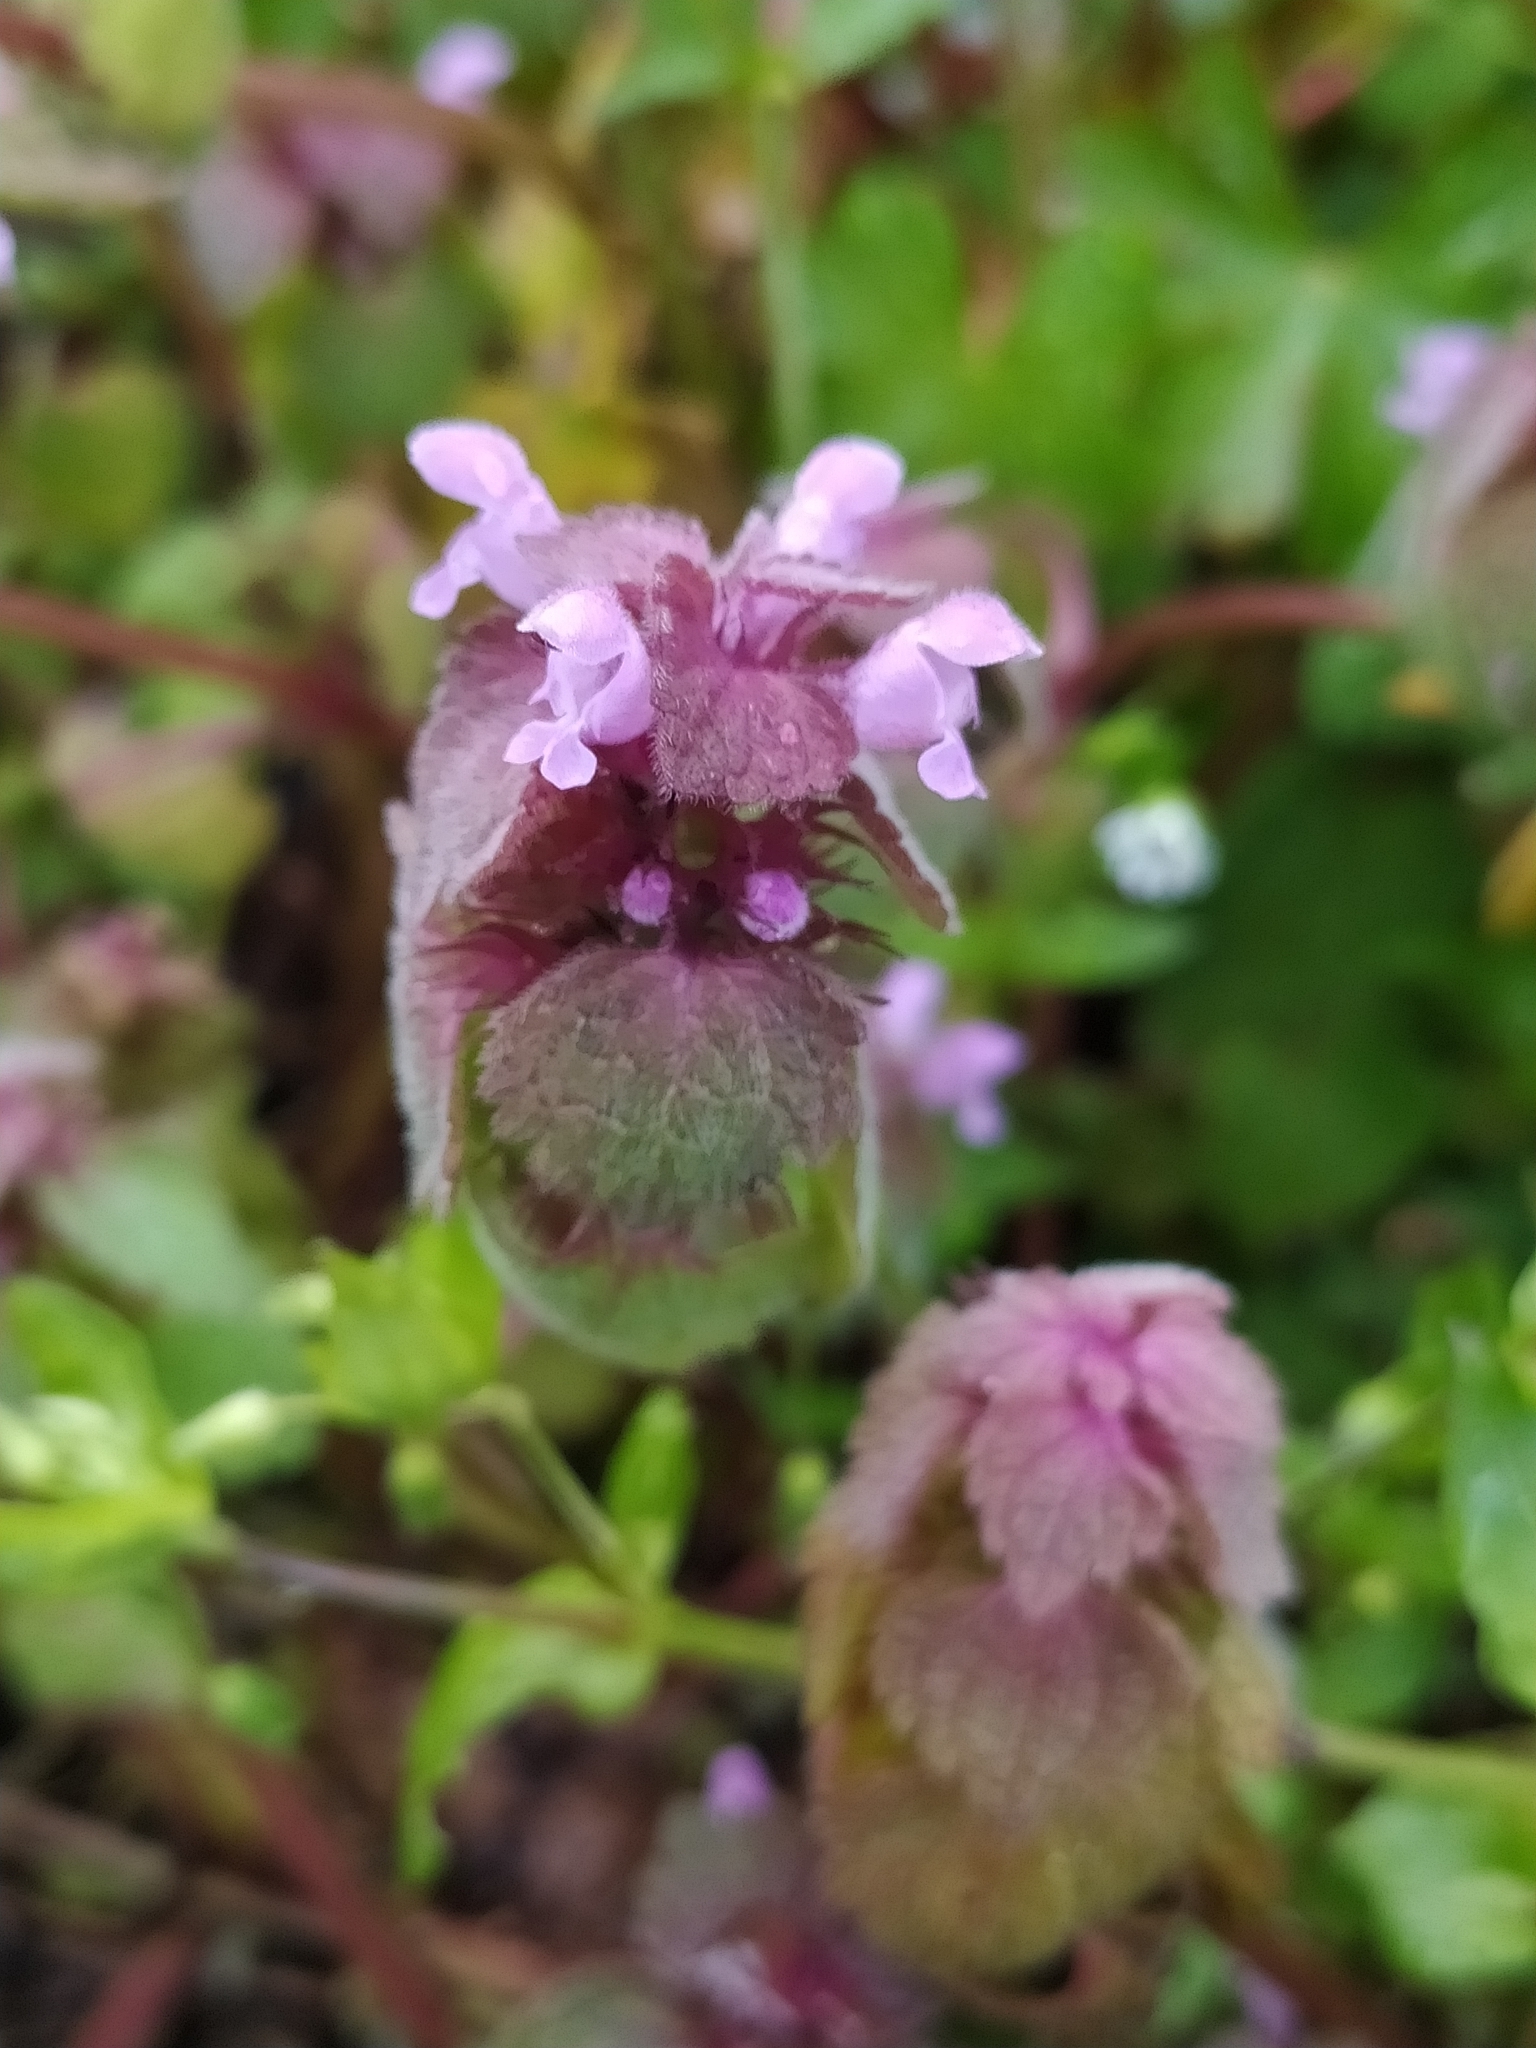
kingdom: Plantae
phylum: Tracheophyta
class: Magnoliopsida
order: Lamiales
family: Lamiaceae
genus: Lamium
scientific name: Lamium purpureum
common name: Red dead-nettle
